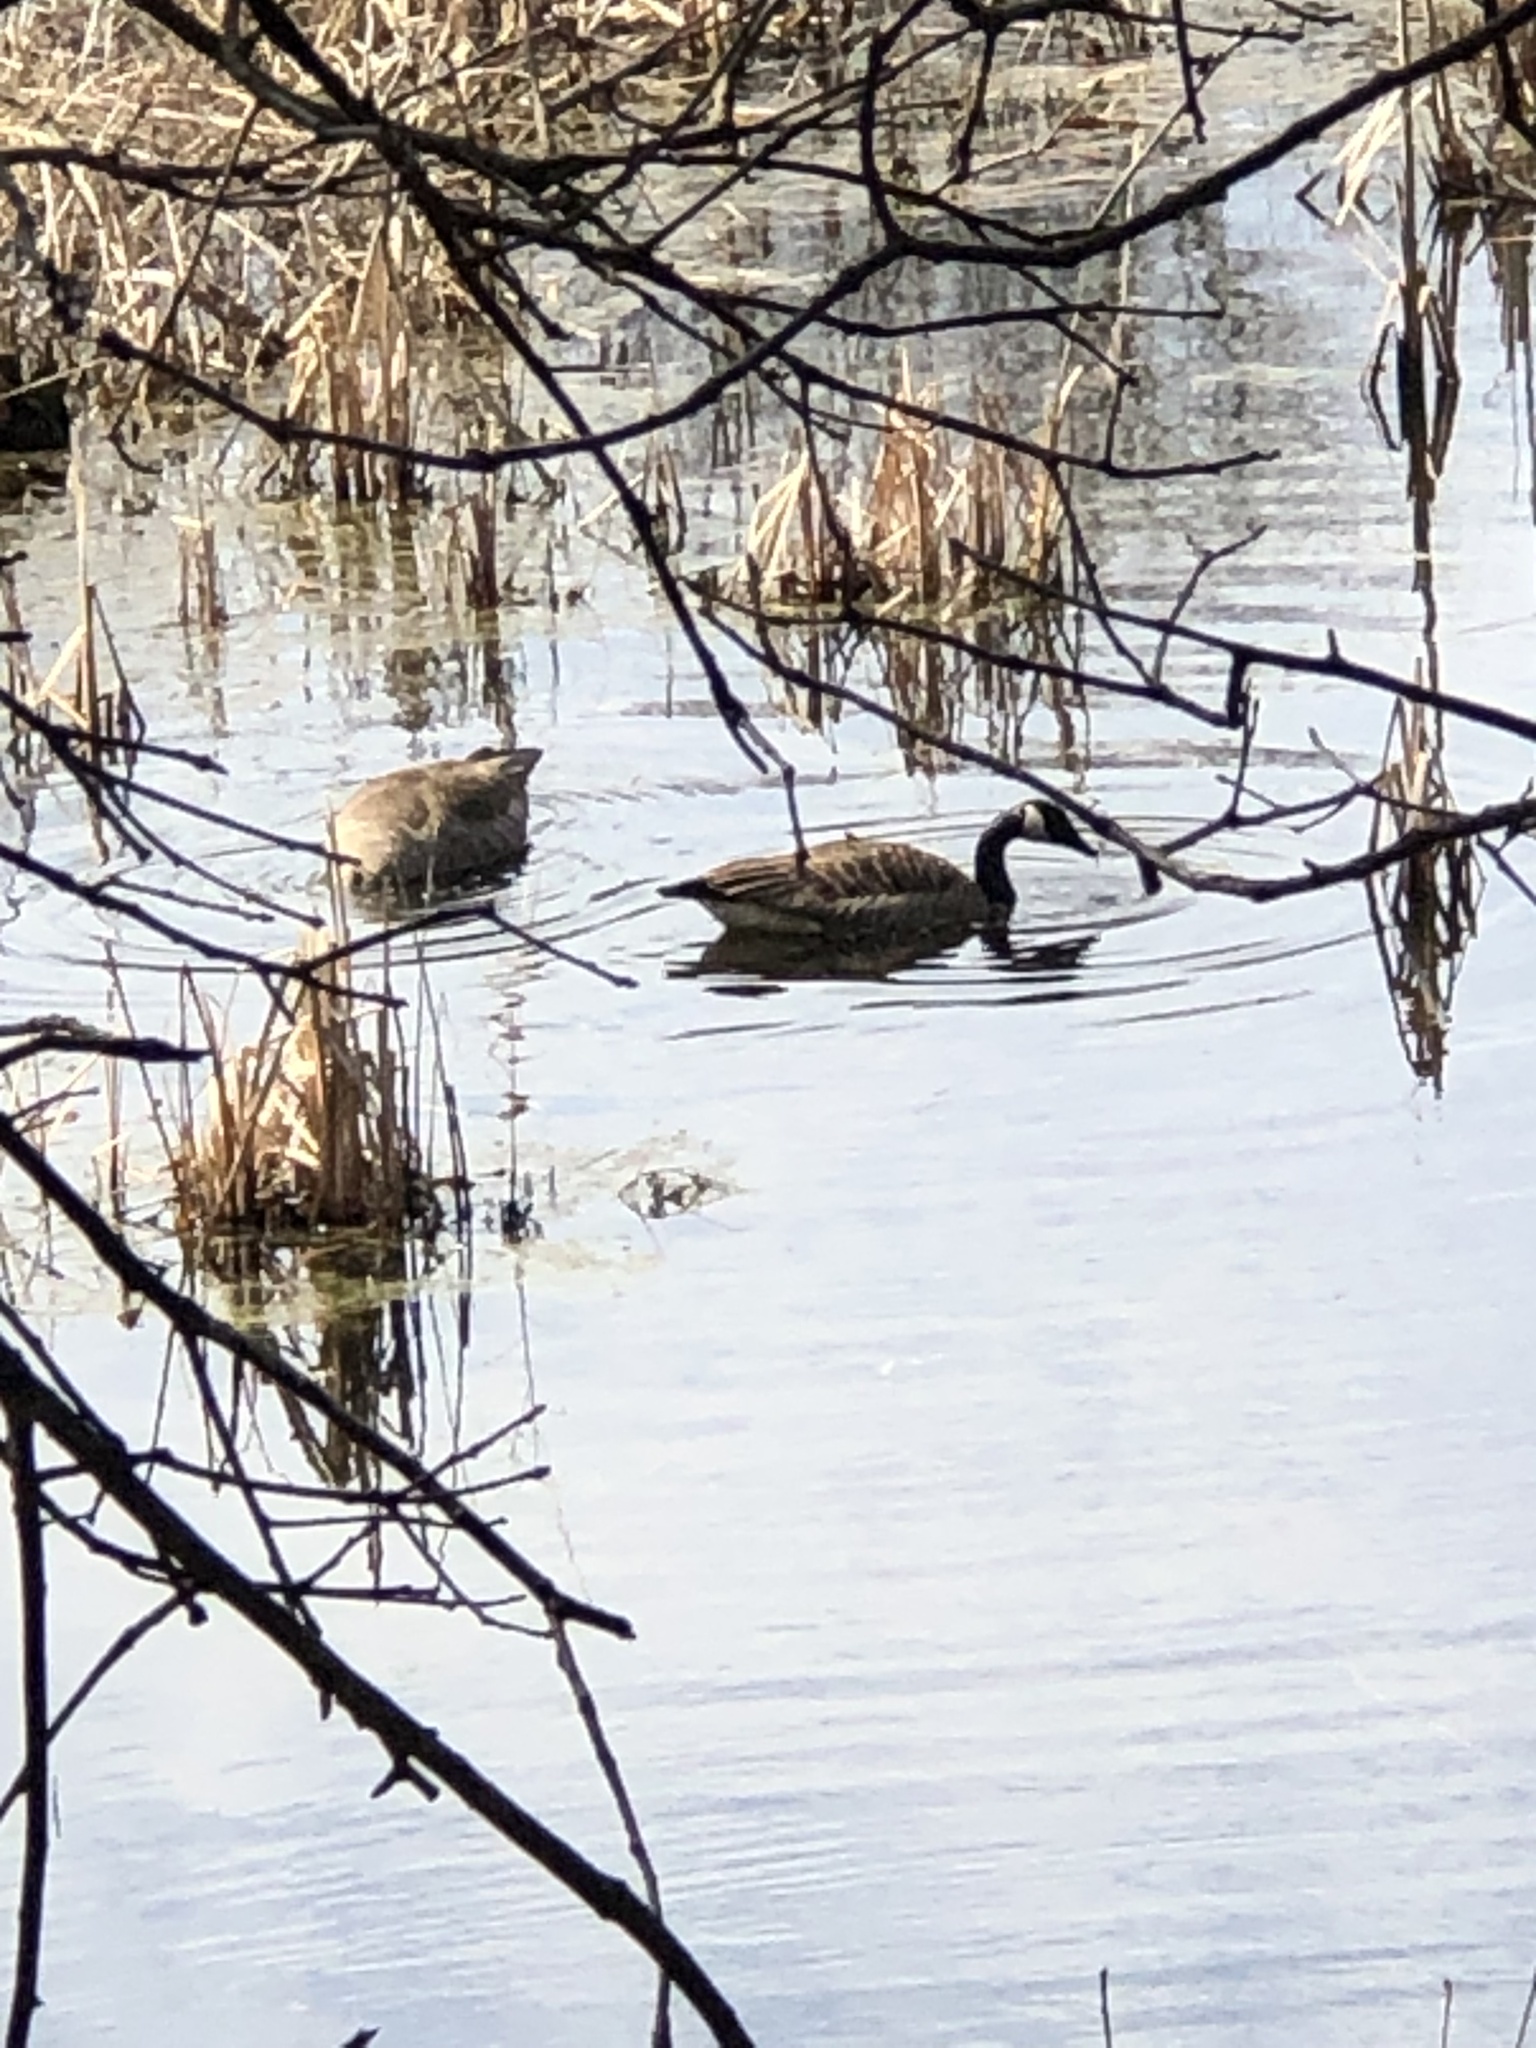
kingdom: Animalia
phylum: Chordata
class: Aves
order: Anseriformes
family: Anatidae
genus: Branta
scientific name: Branta canadensis
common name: Canada goose
